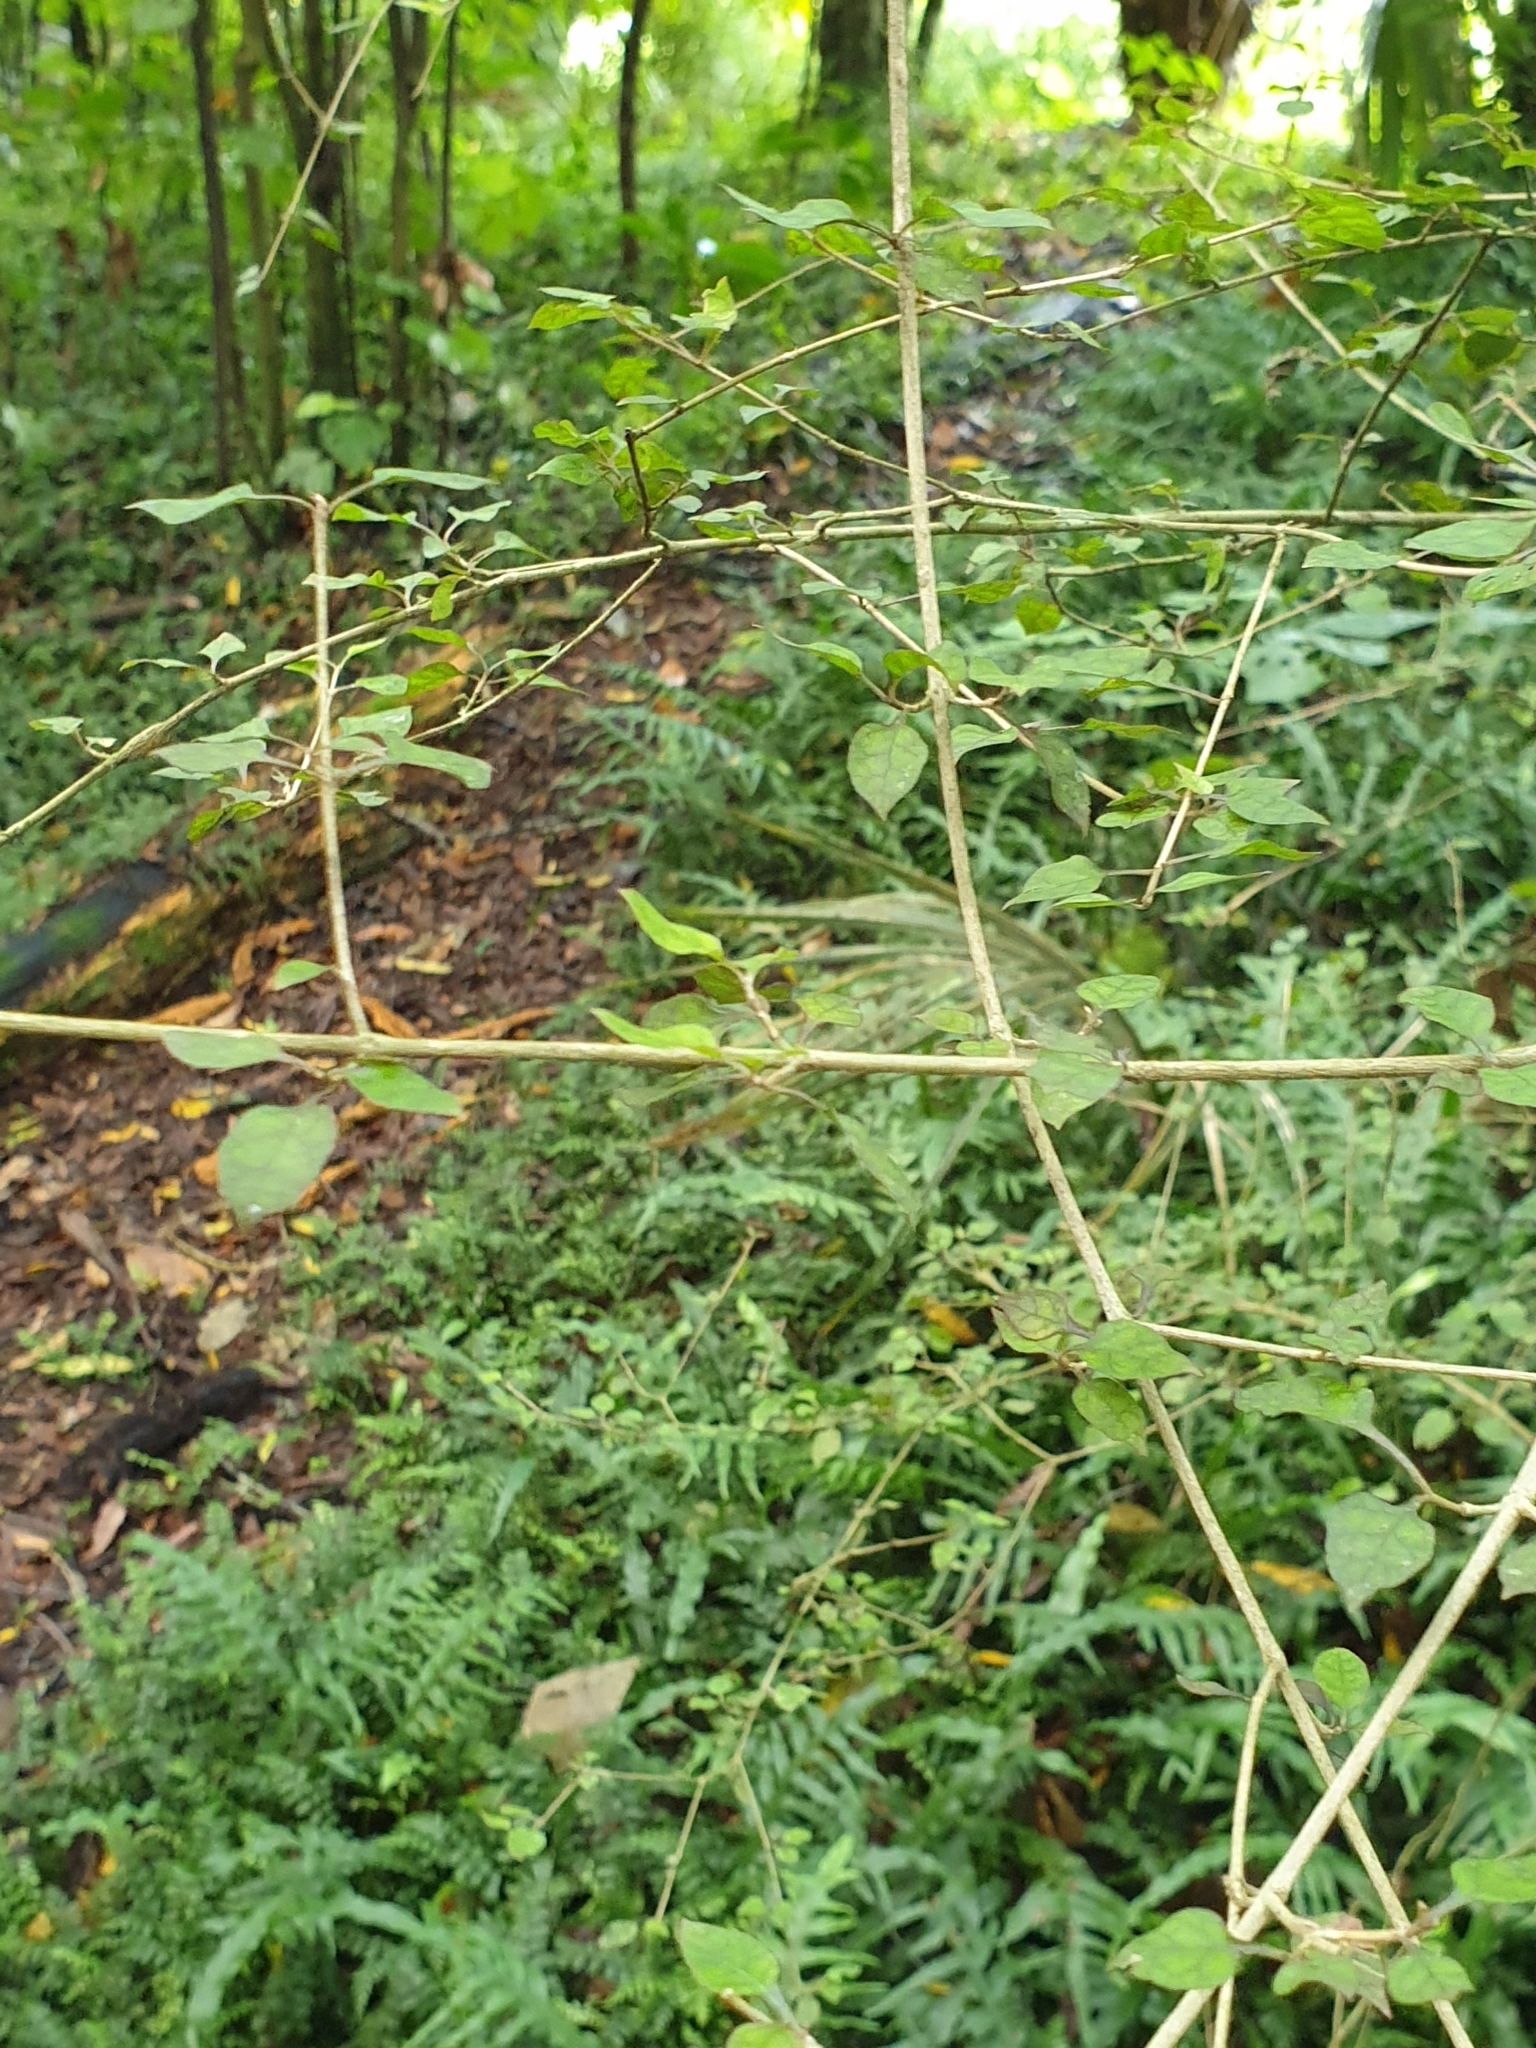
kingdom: Plantae
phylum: Tracheophyta
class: Magnoliopsida
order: Gentianales
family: Rubiaceae
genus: Coprosma
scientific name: Coprosma areolata
